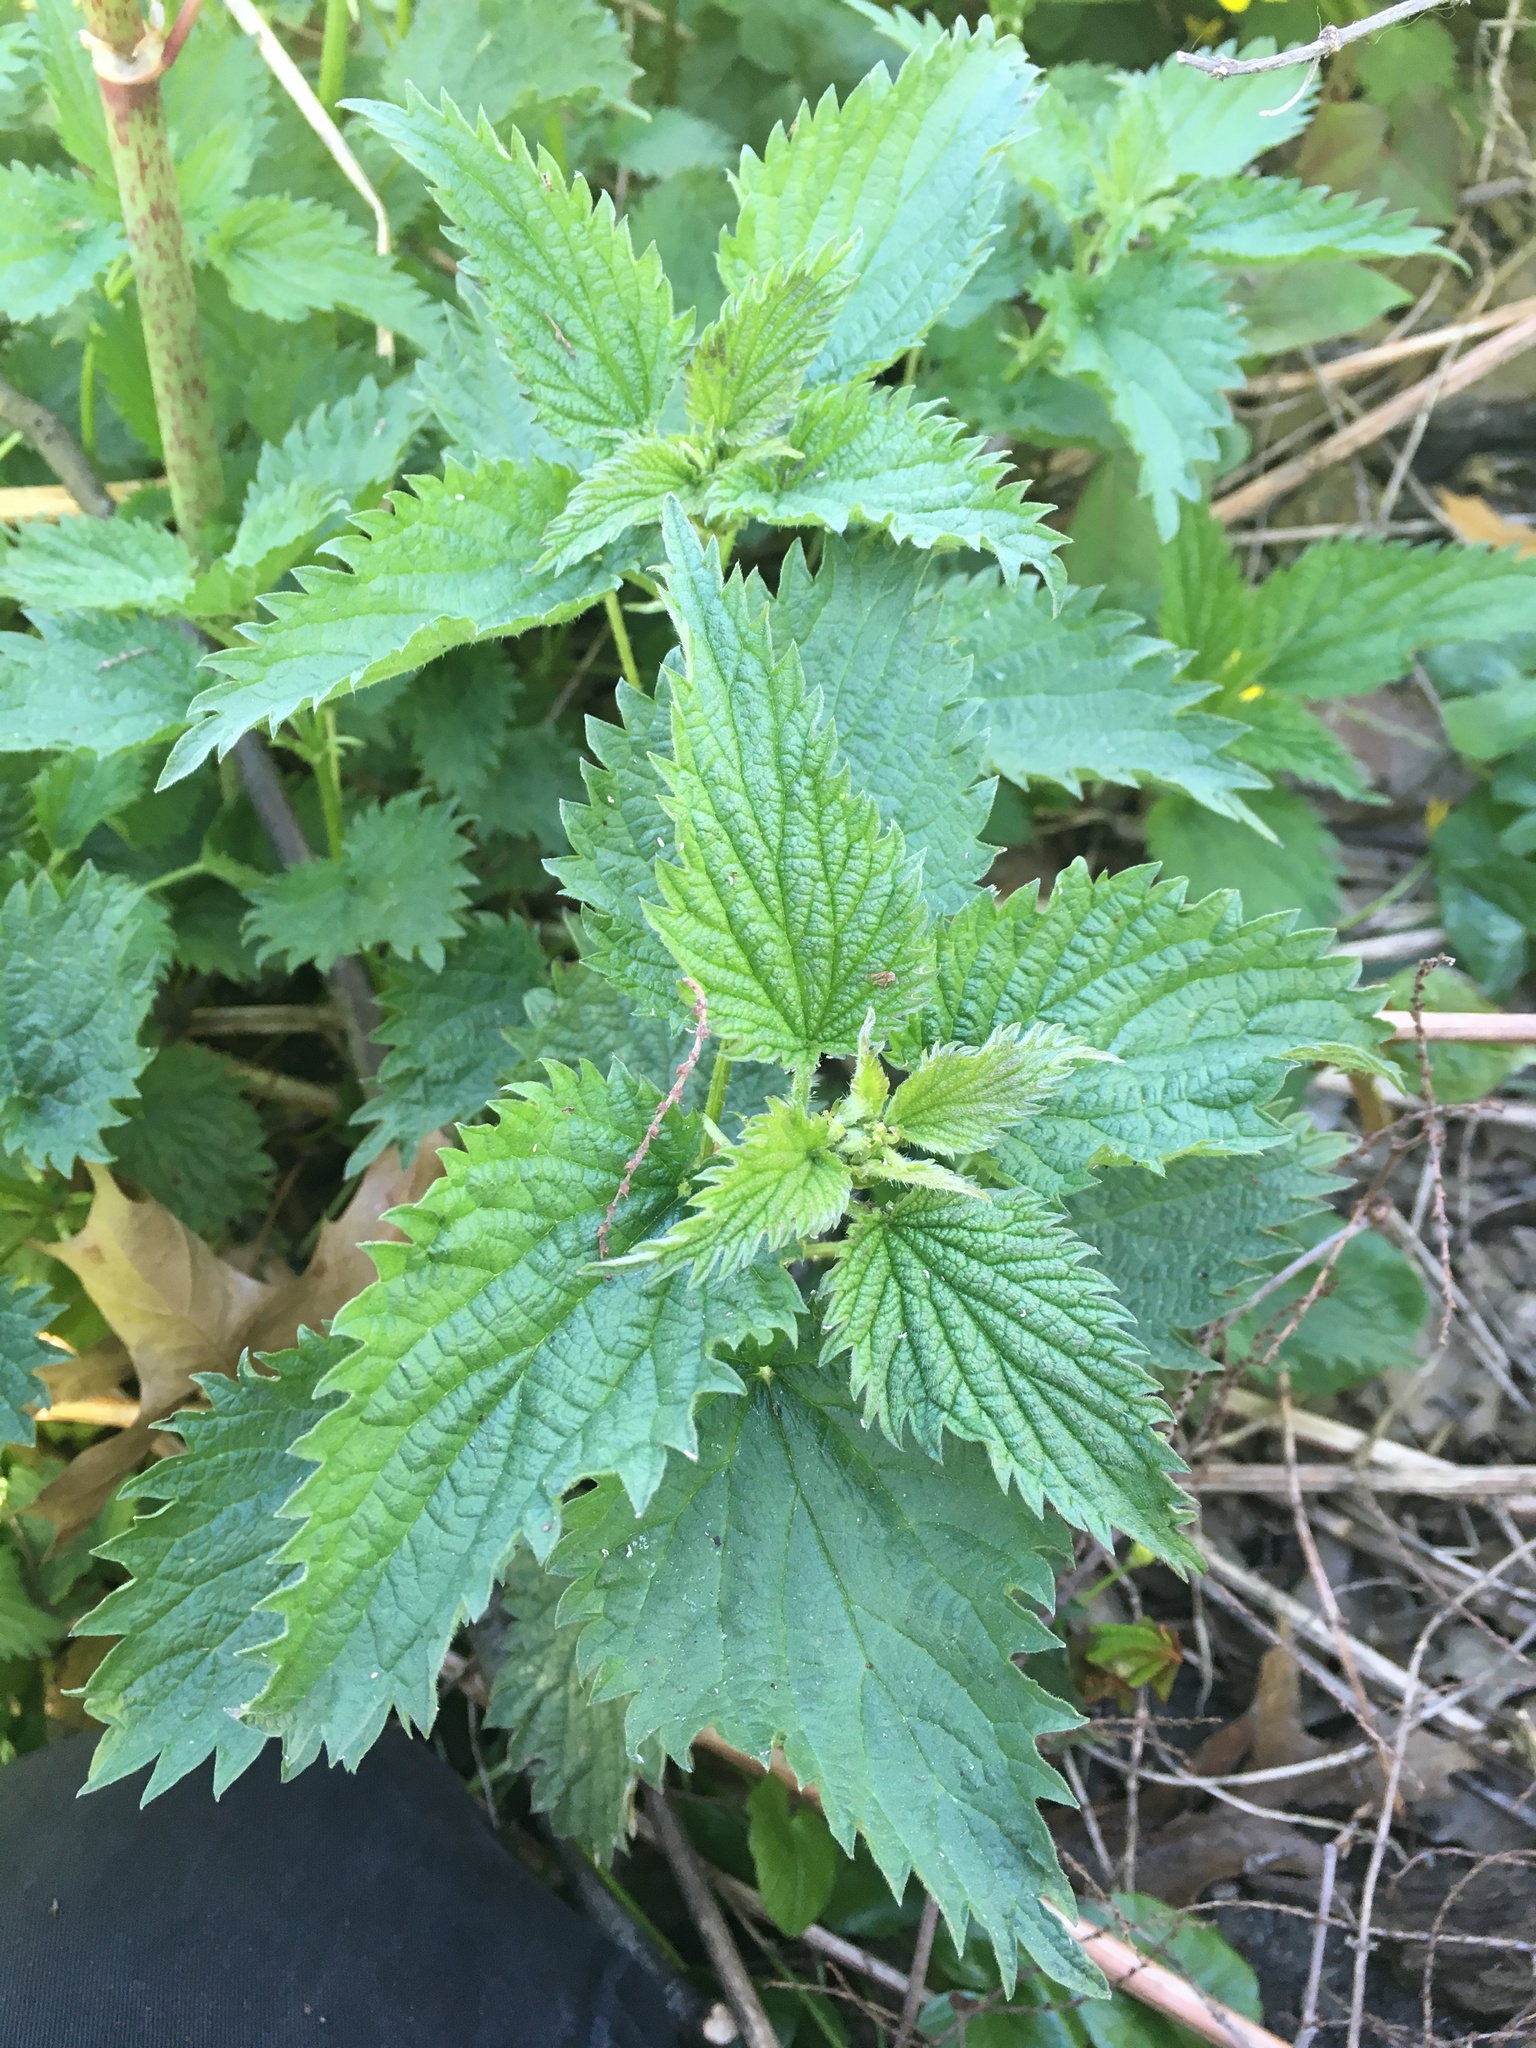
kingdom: Plantae
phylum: Tracheophyta
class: Magnoliopsida
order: Rosales
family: Urticaceae
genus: Urtica
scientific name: Urtica dioica
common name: Common nettle
